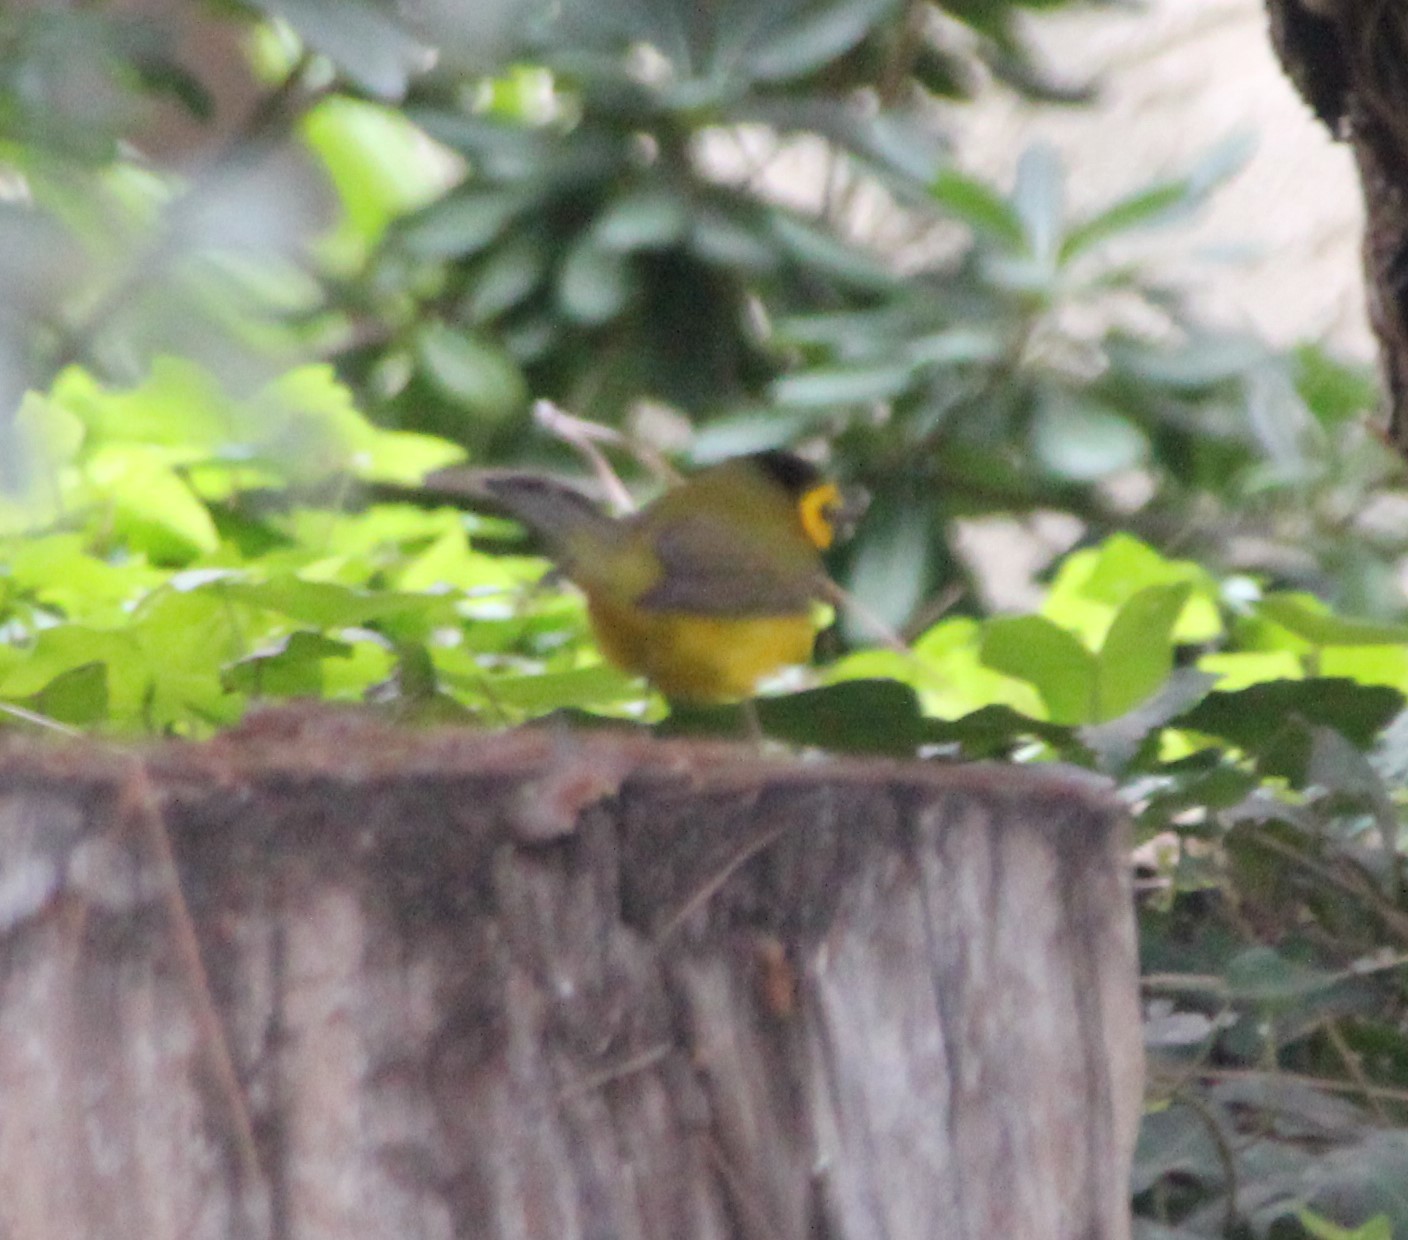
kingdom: Animalia
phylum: Chordata
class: Aves
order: Passeriformes
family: Parulidae
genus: Setophaga
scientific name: Setophaga citrina
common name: Hooded warbler
